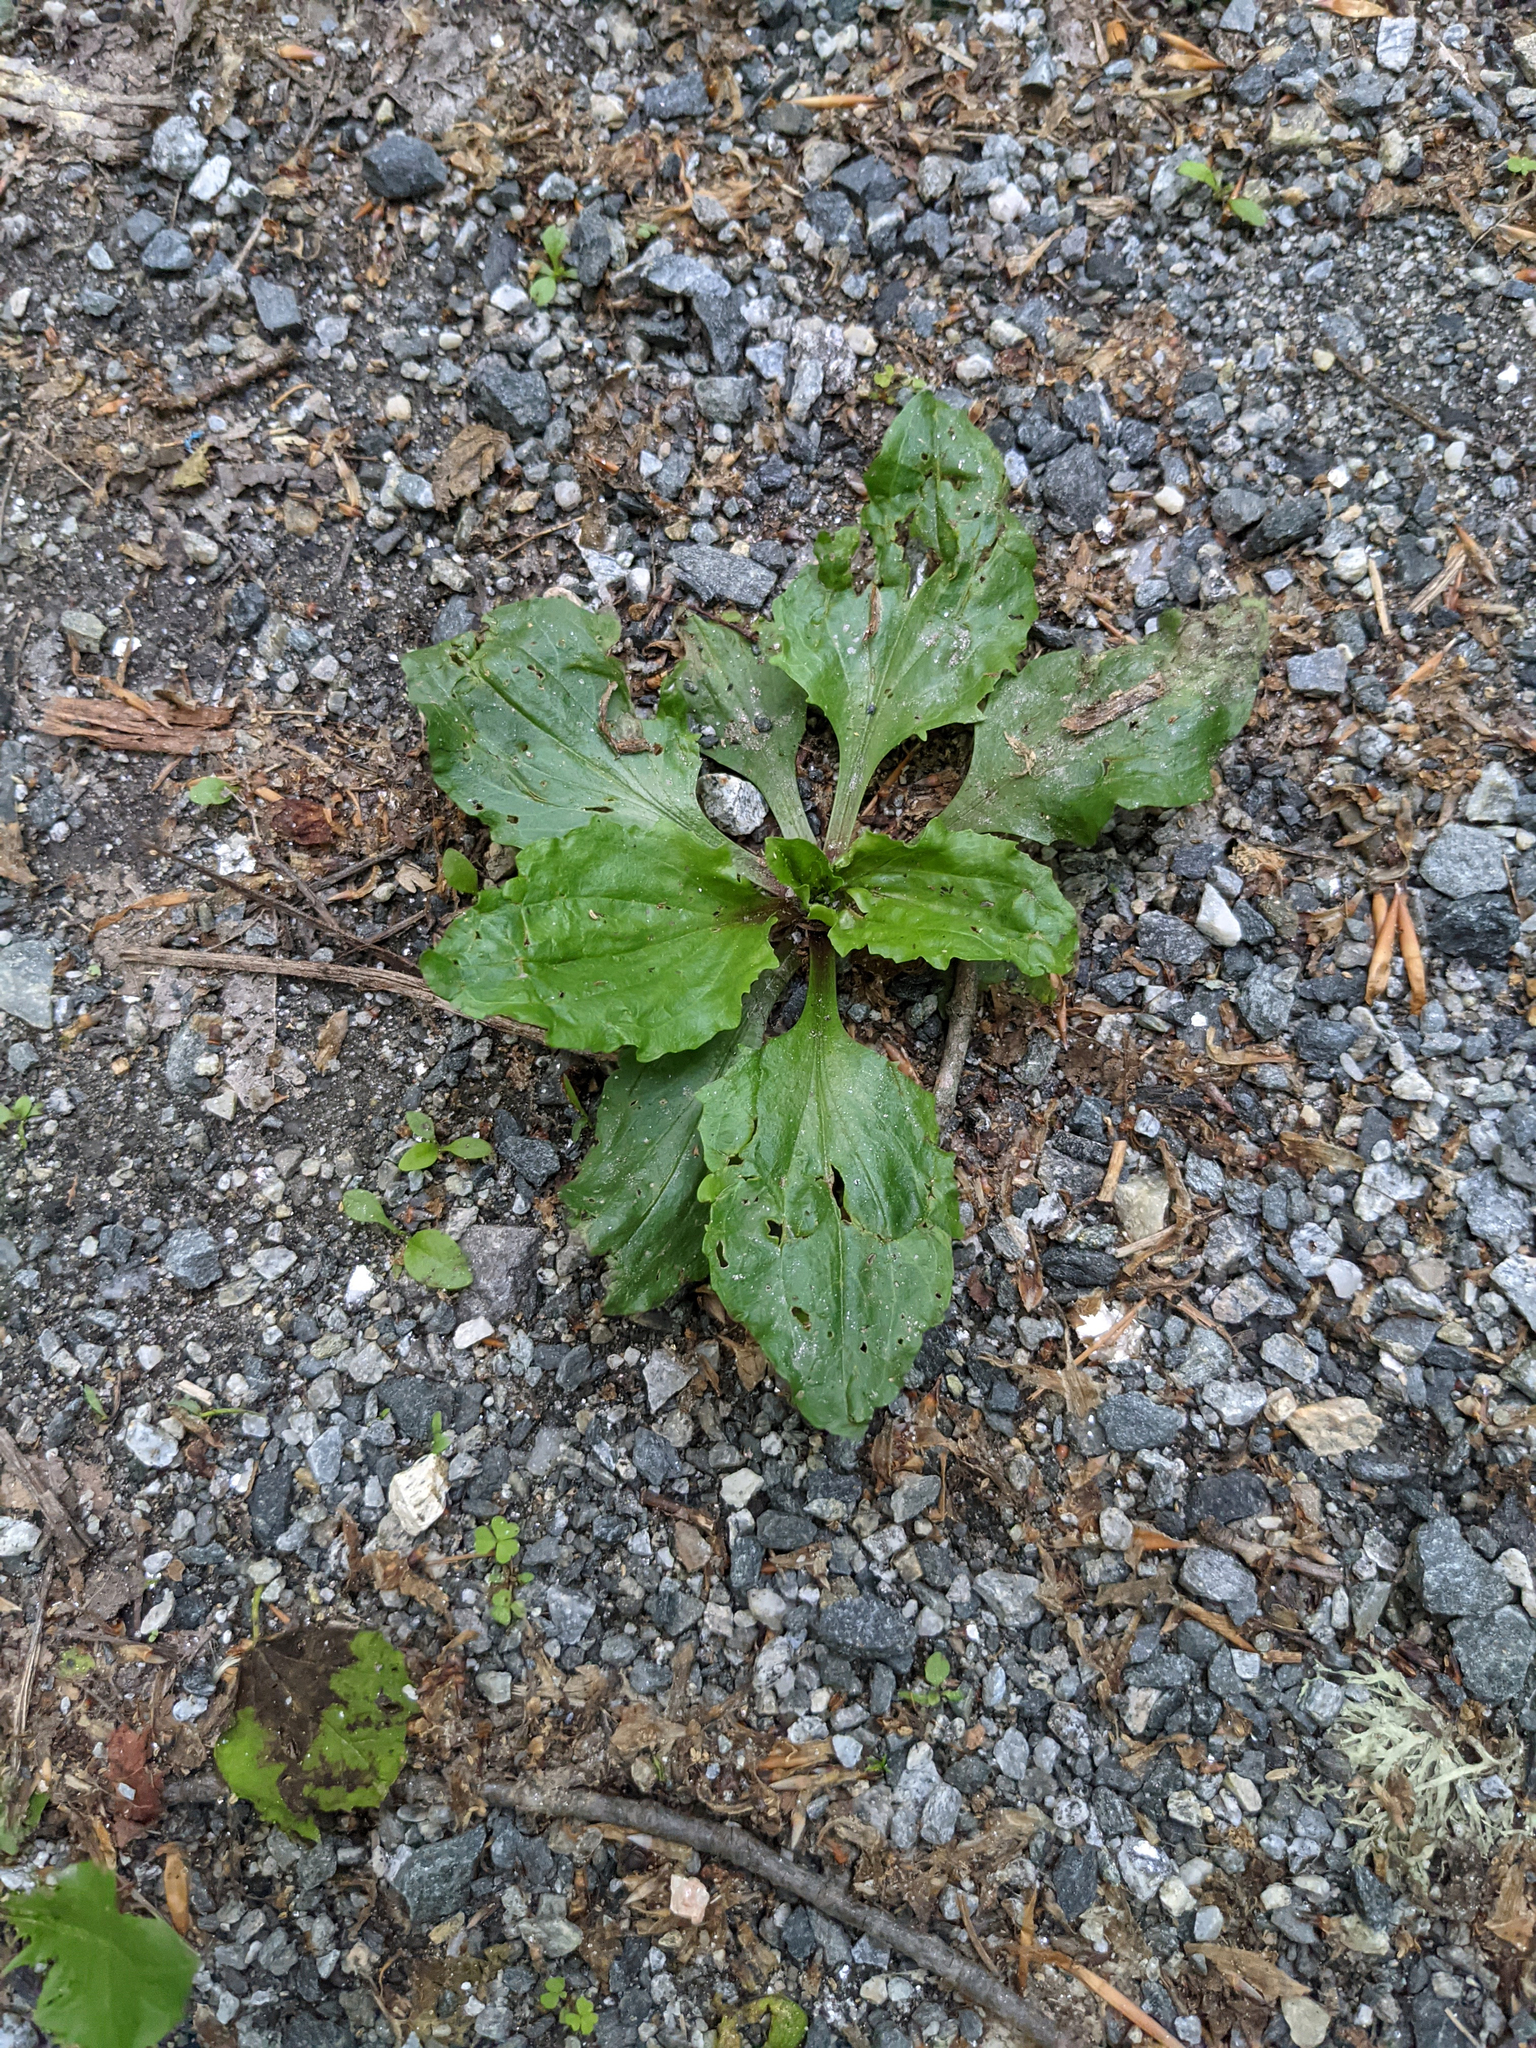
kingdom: Plantae
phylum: Tracheophyta
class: Magnoliopsida
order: Lamiales
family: Plantaginaceae
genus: Plantago
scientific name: Plantago rugelii
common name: American plantain
